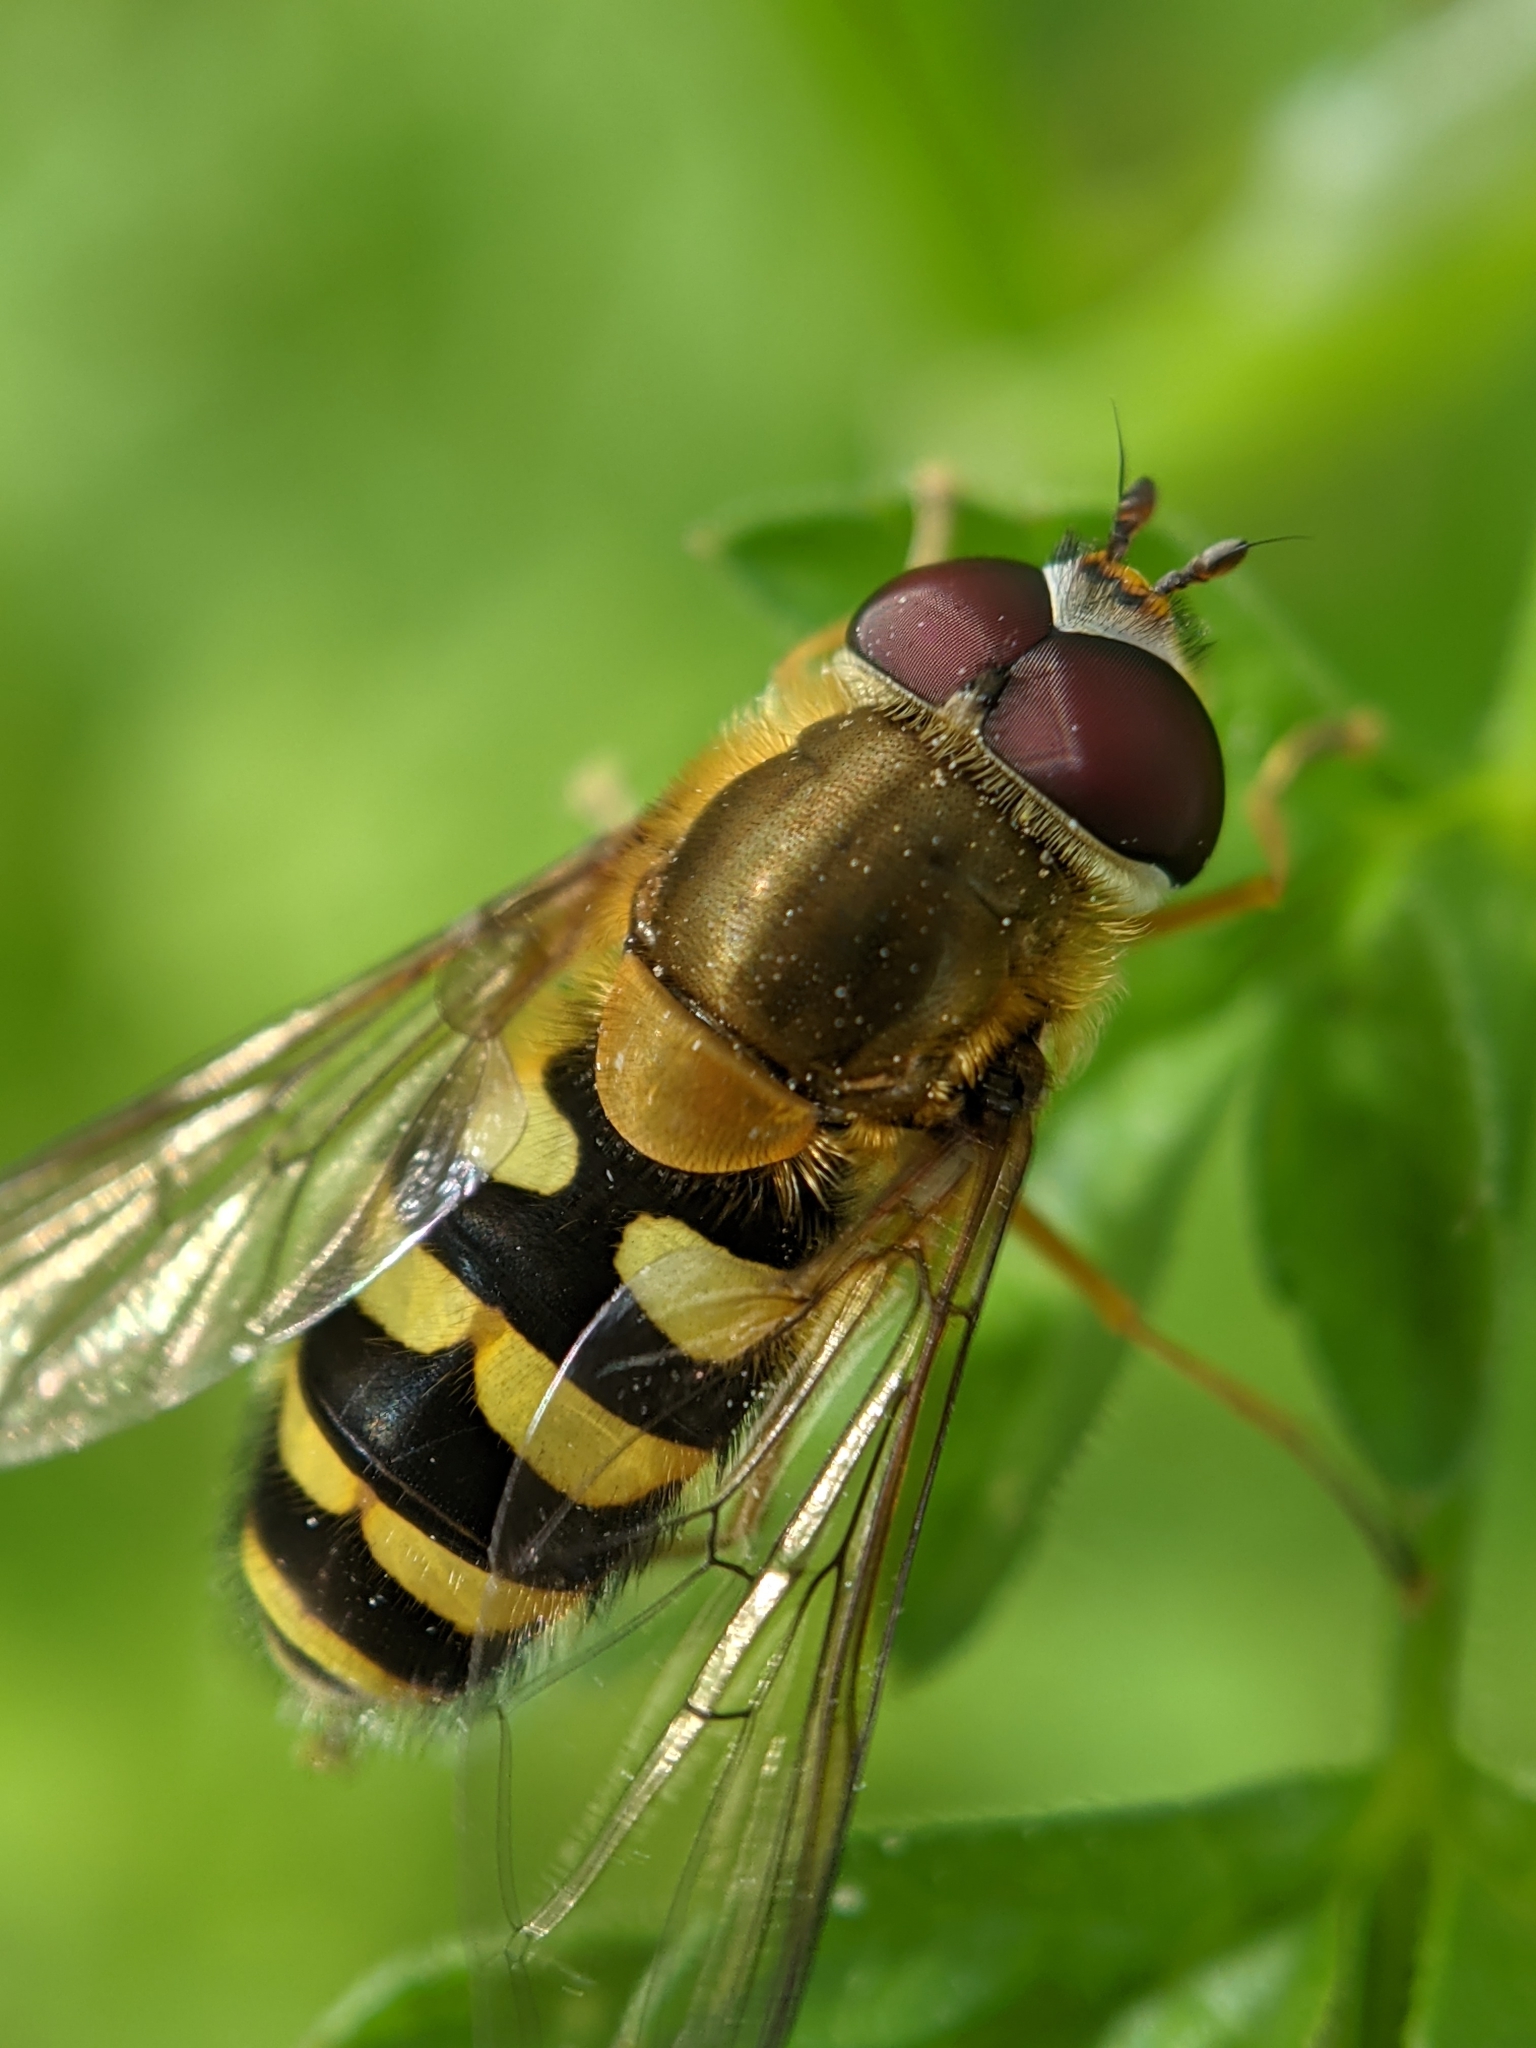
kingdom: Animalia
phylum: Arthropoda
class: Insecta
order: Diptera
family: Syrphidae
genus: Syrphus
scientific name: Syrphus
